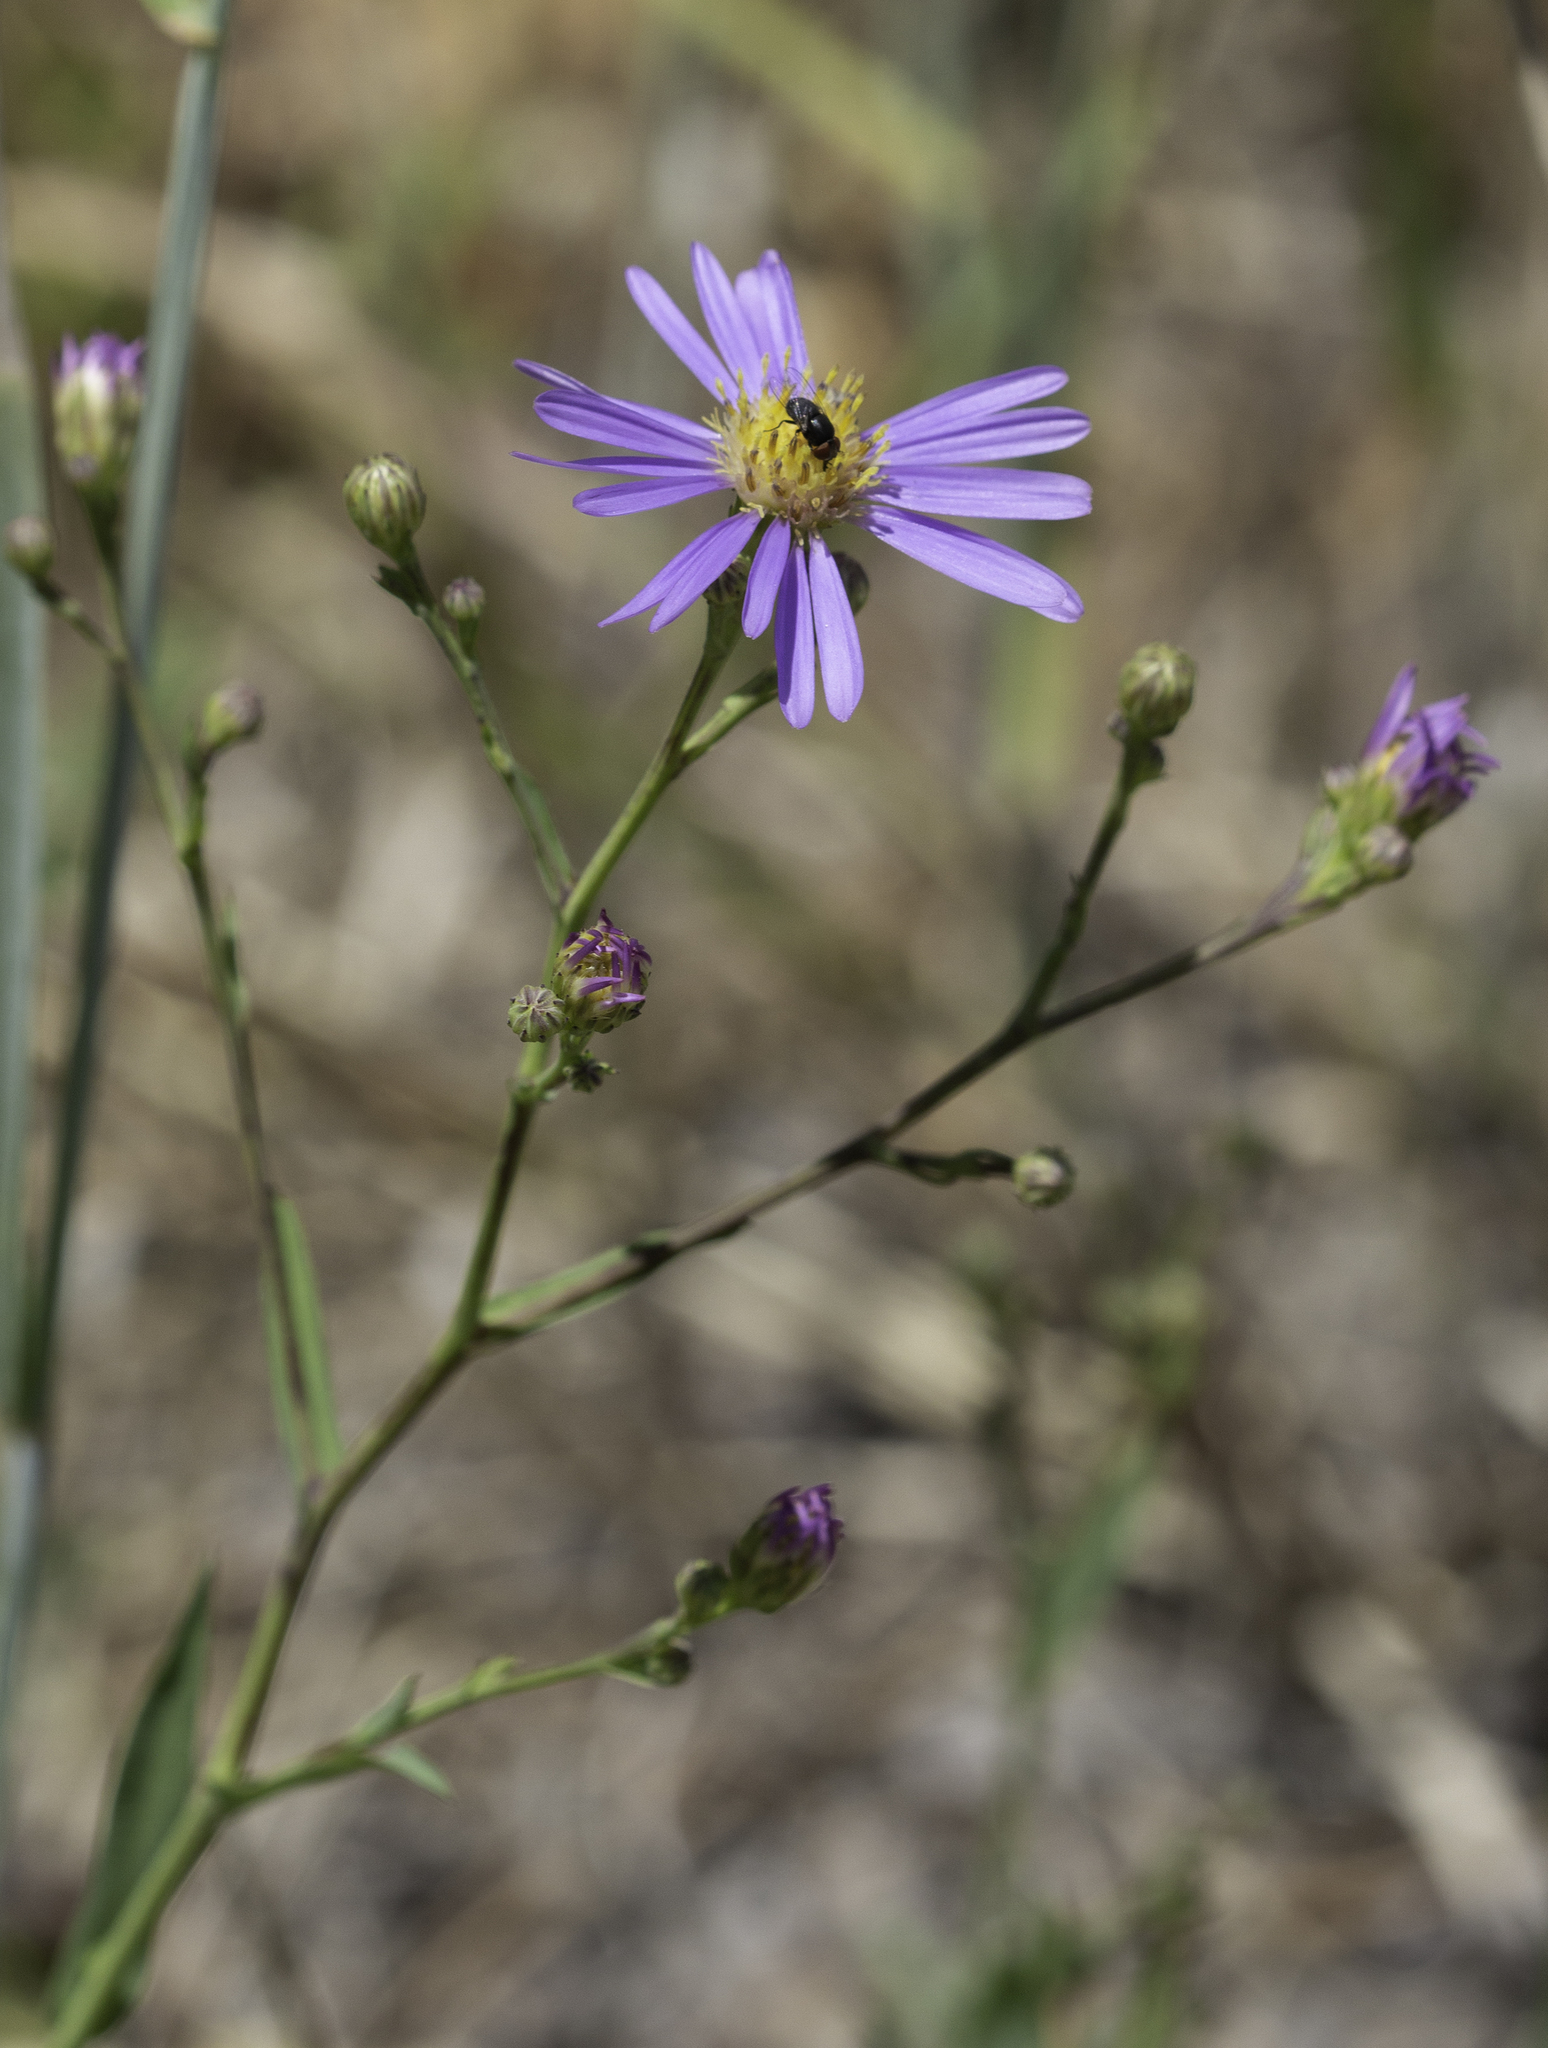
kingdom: Plantae
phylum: Tracheophyta
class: Magnoliopsida
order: Asterales
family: Asteraceae
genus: Symphyotrichum
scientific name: Symphyotrichum laeve
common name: Glaucous aster
